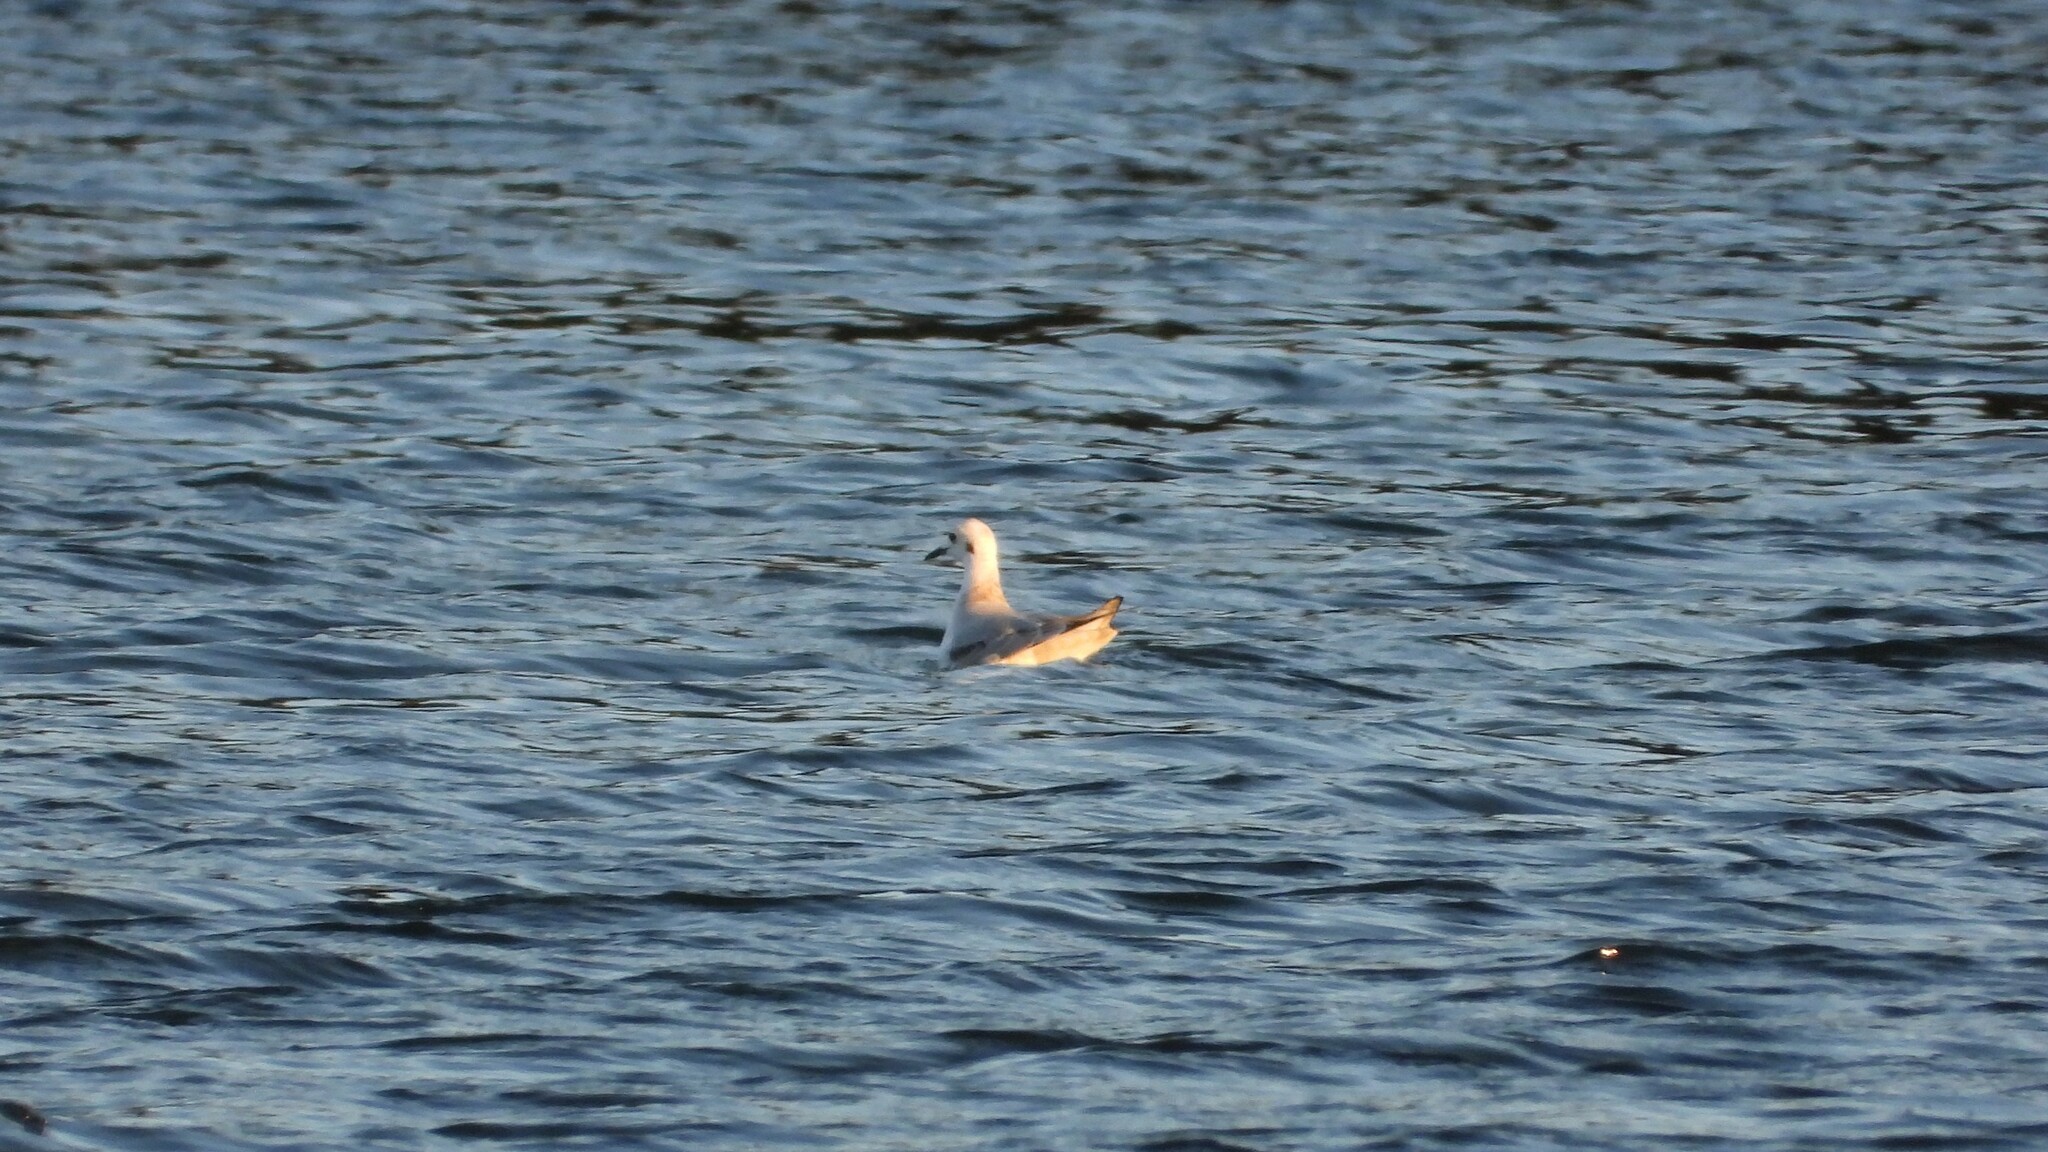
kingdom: Animalia
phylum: Chordata
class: Aves
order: Charadriiformes
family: Laridae
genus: Chroicocephalus
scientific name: Chroicocephalus philadelphia
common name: Bonaparte's gull
